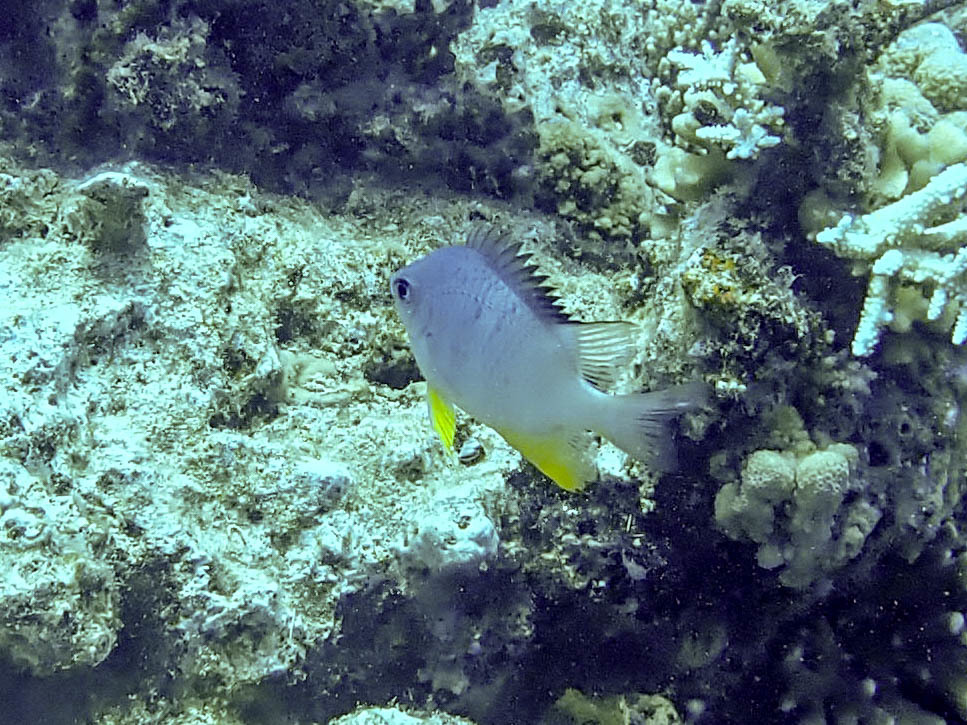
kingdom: Animalia
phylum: Chordata
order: Perciformes
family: Pomacentridae
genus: Amblyglyphidodon
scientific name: Amblyglyphidodon leucogaster
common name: White-belly damsel
